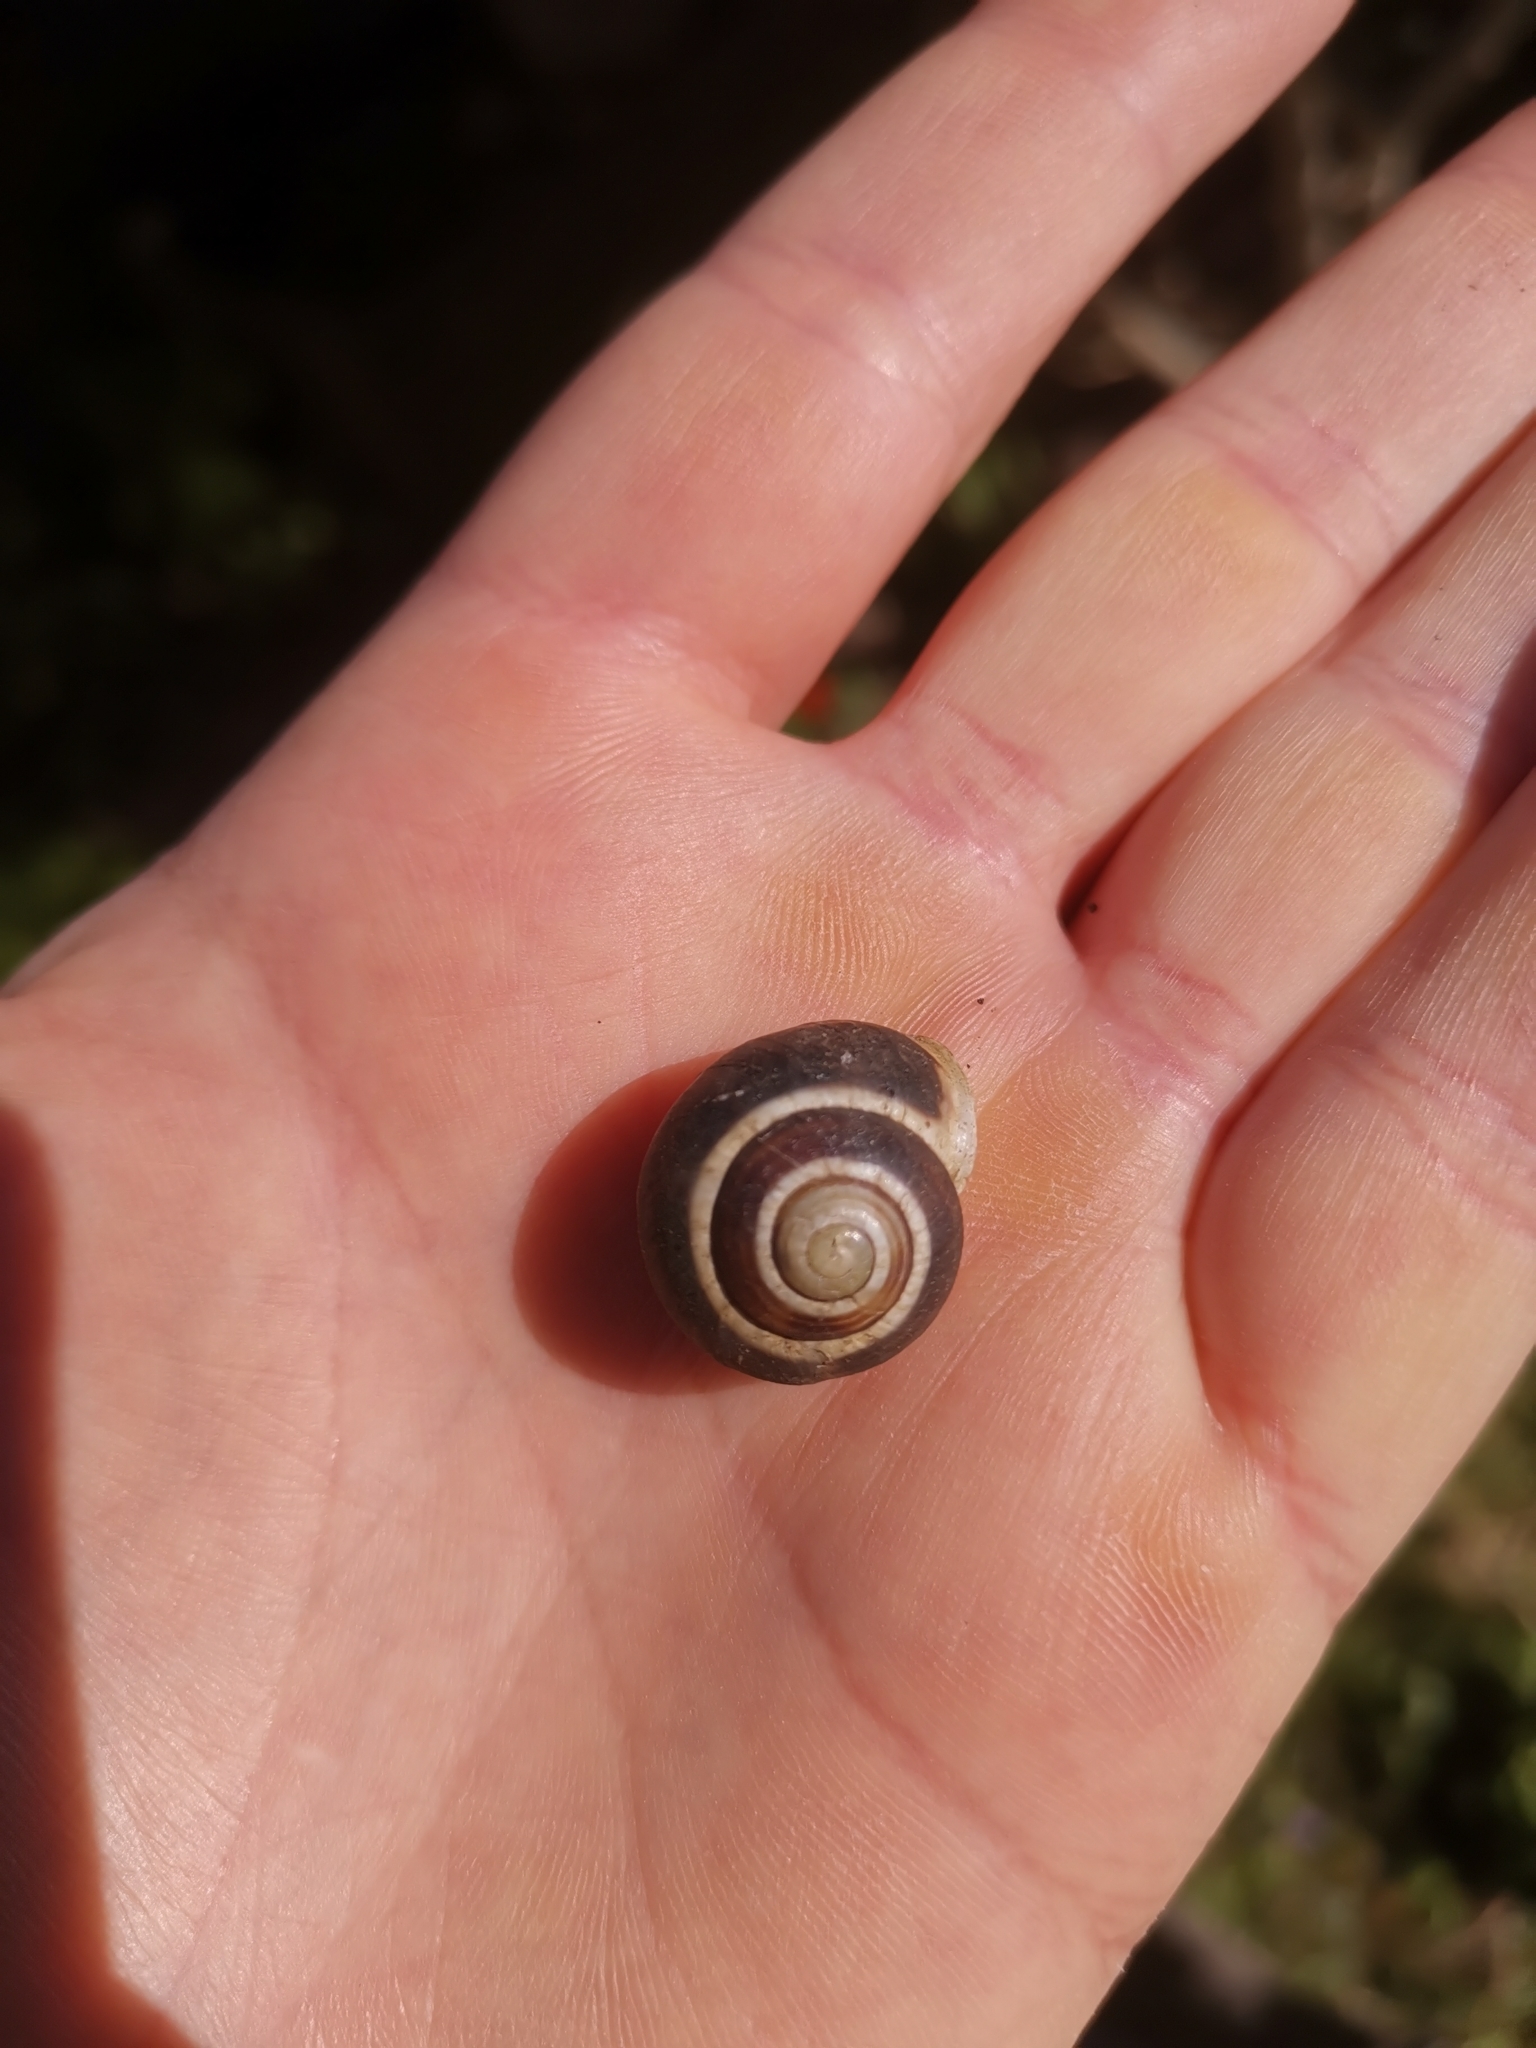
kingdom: Animalia
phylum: Mollusca
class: Gastropoda
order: Stylommatophora
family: Helicidae
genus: Cepaea
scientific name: Cepaea hortensis
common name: White-lip gardensnail
